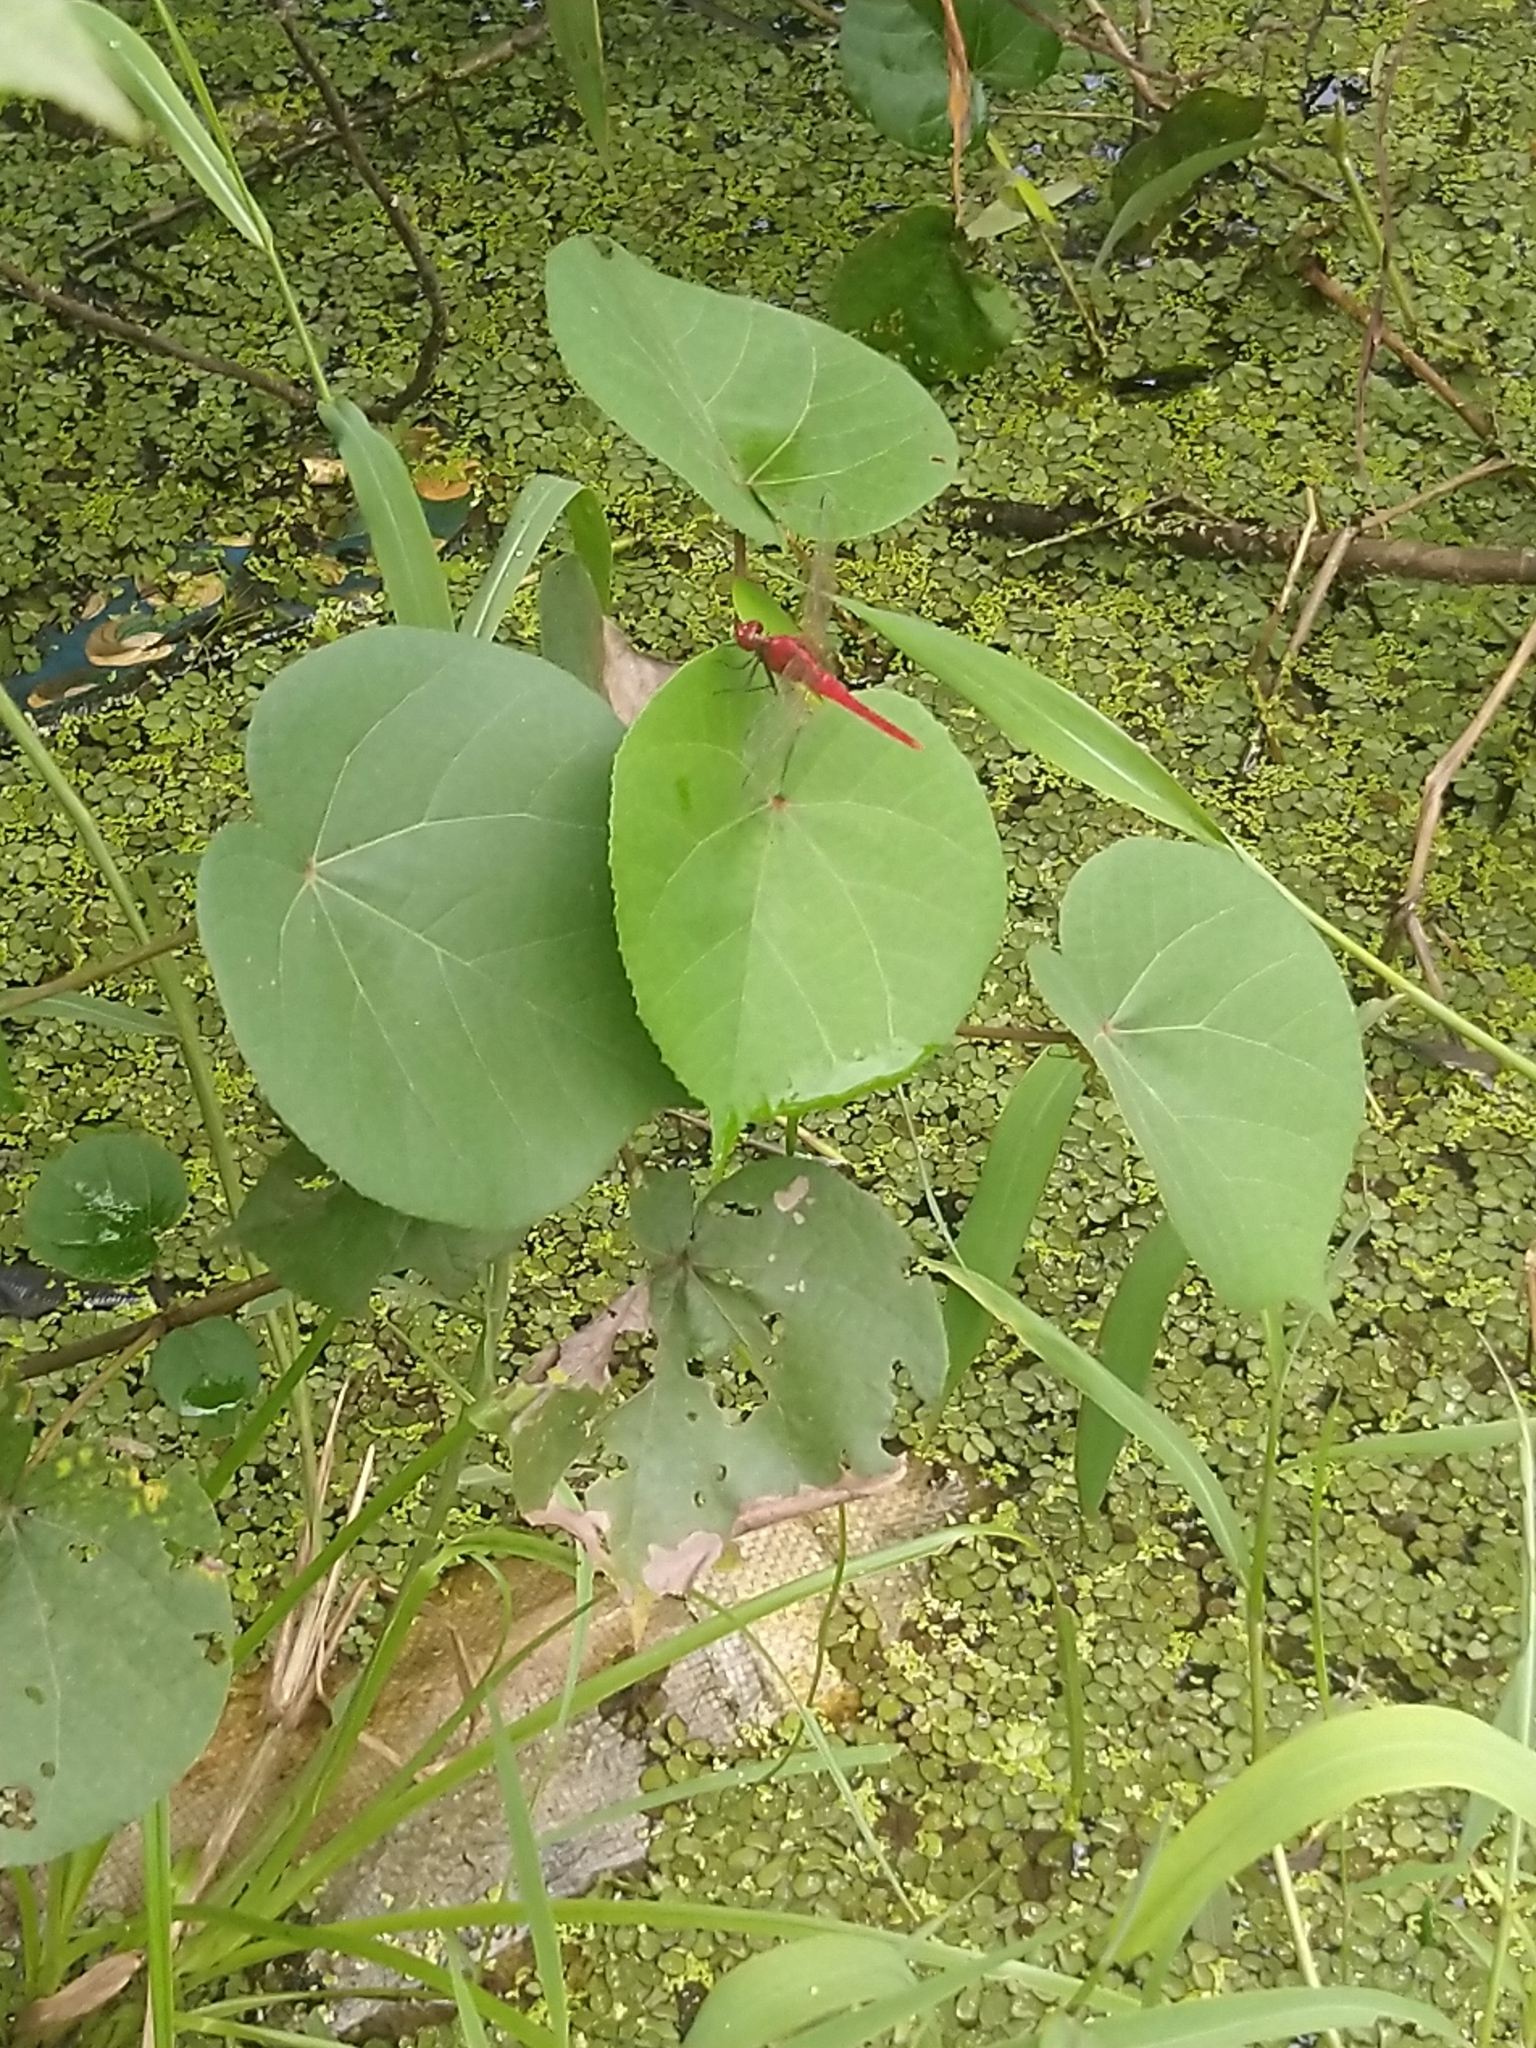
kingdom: Animalia
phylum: Arthropoda
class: Insecta
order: Odonata
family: Libellulidae
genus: Rhodothemis
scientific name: Rhodothemis rufa
